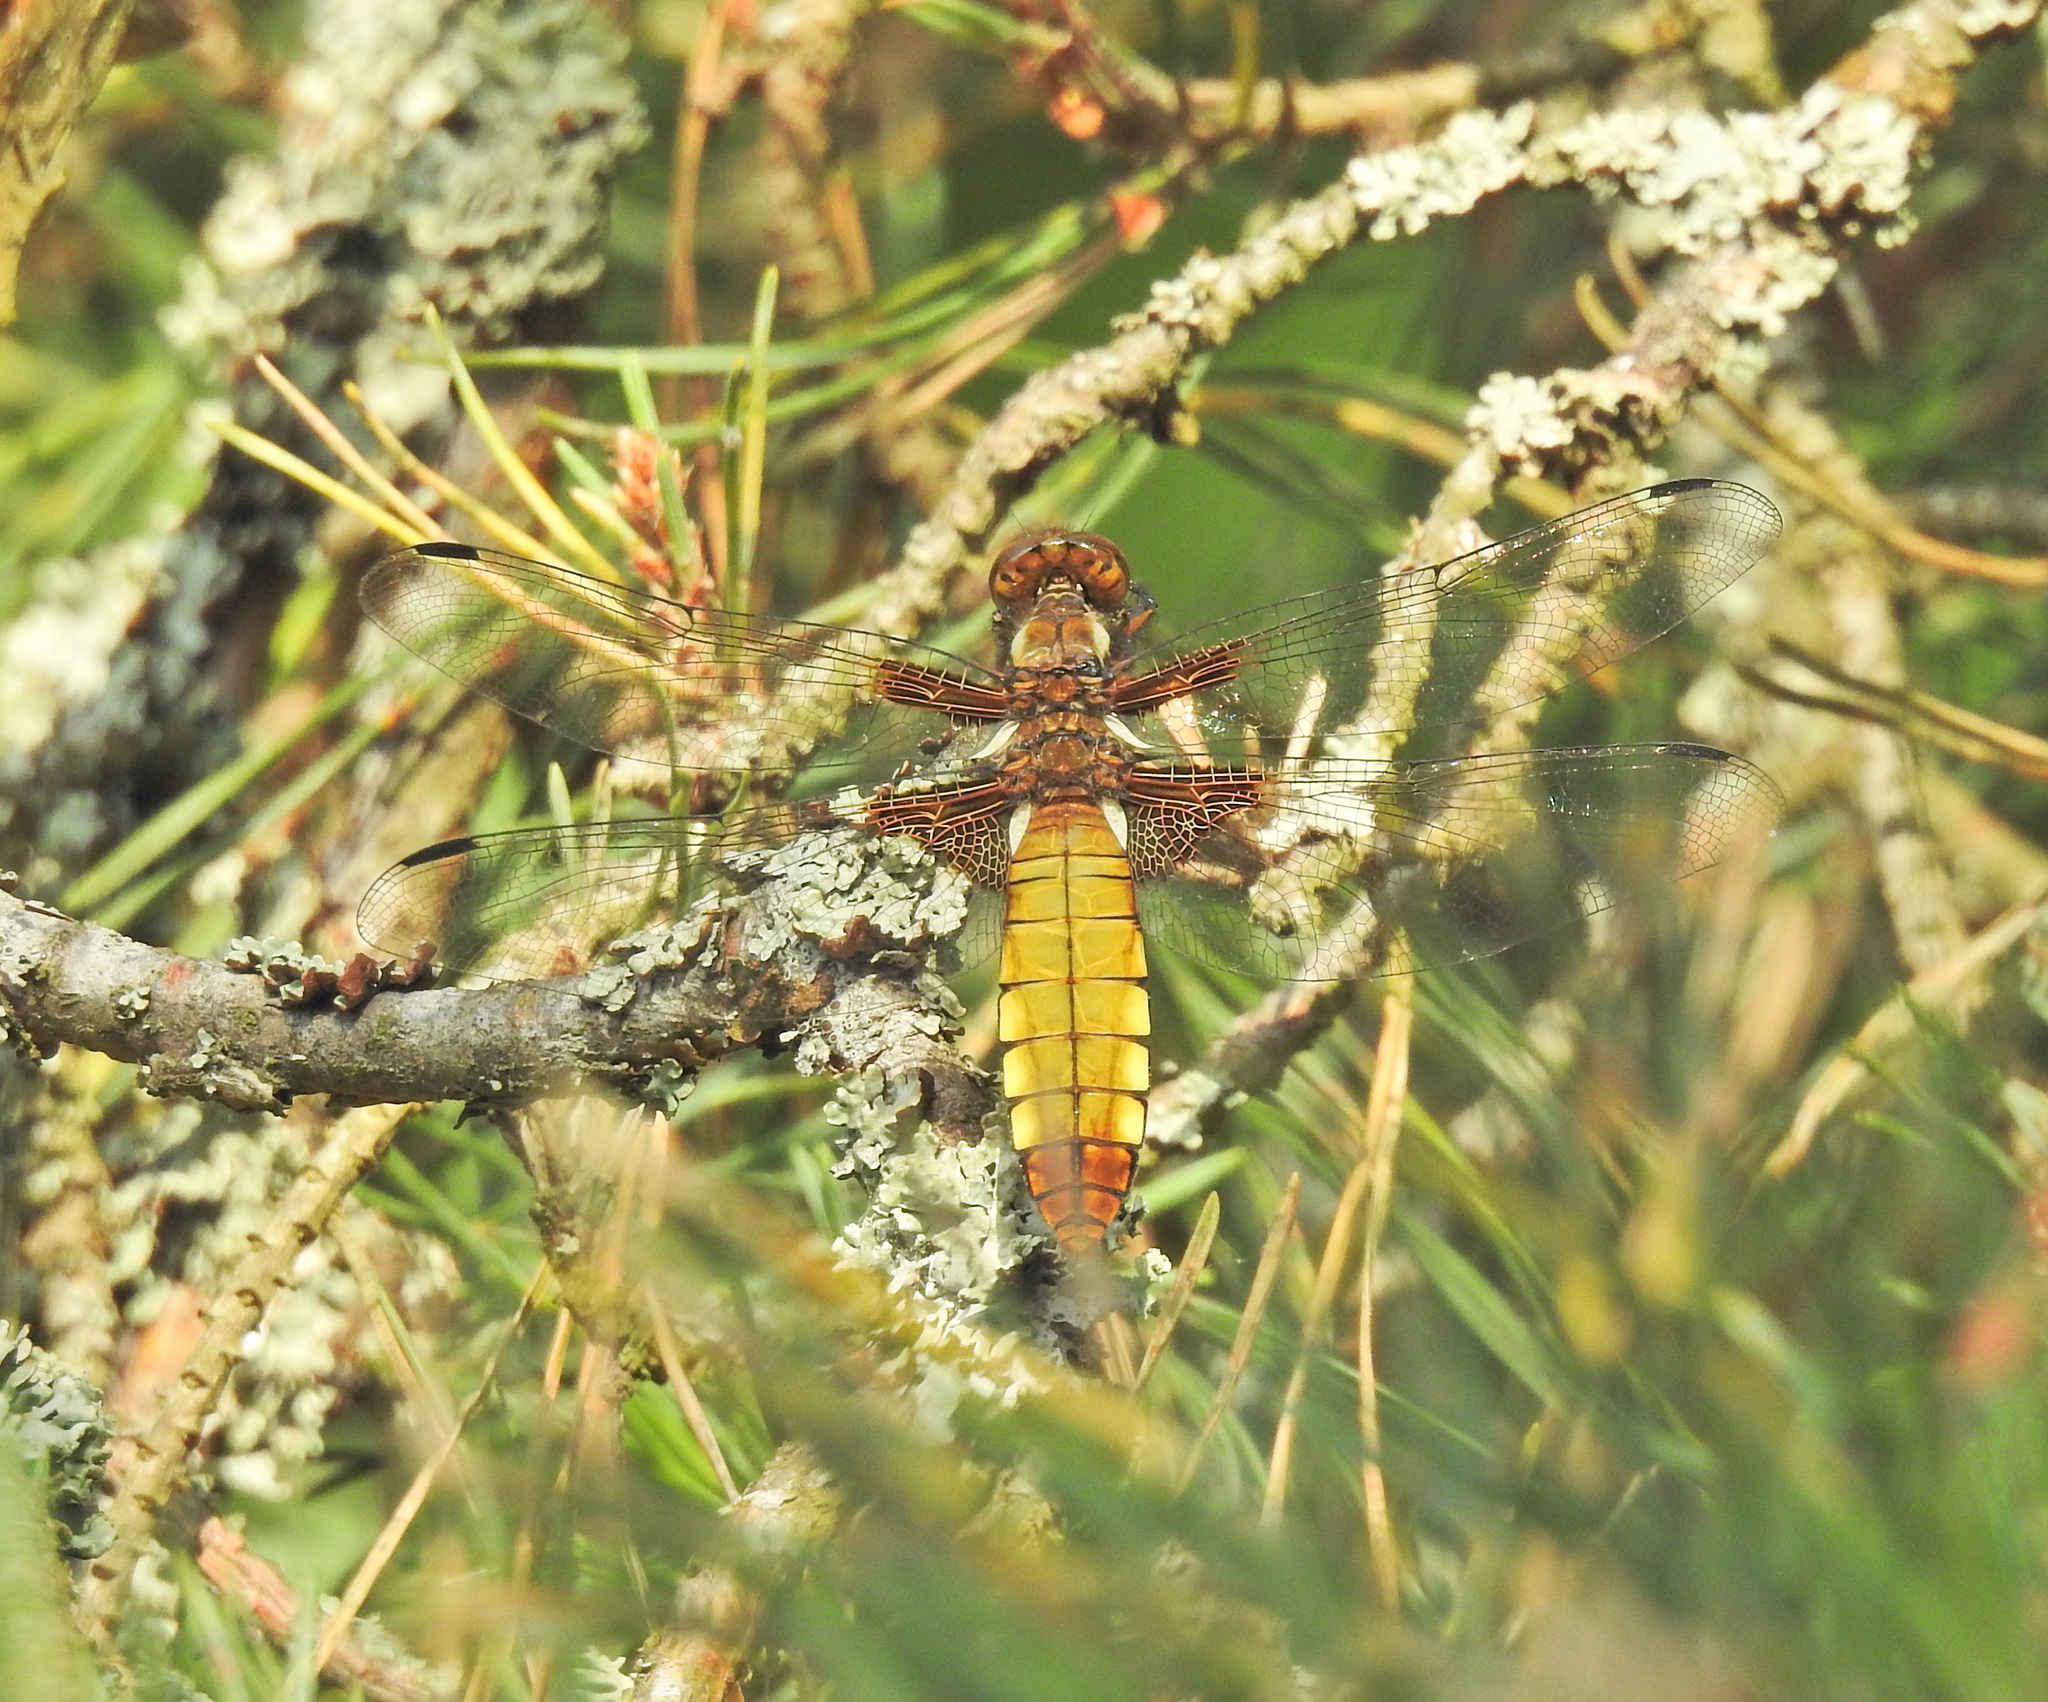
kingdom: Animalia
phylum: Arthropoda
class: Insecta
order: Odonata
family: Libellulidae
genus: Libellula
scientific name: Libellula depressa
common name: Broad-bodied chaser
